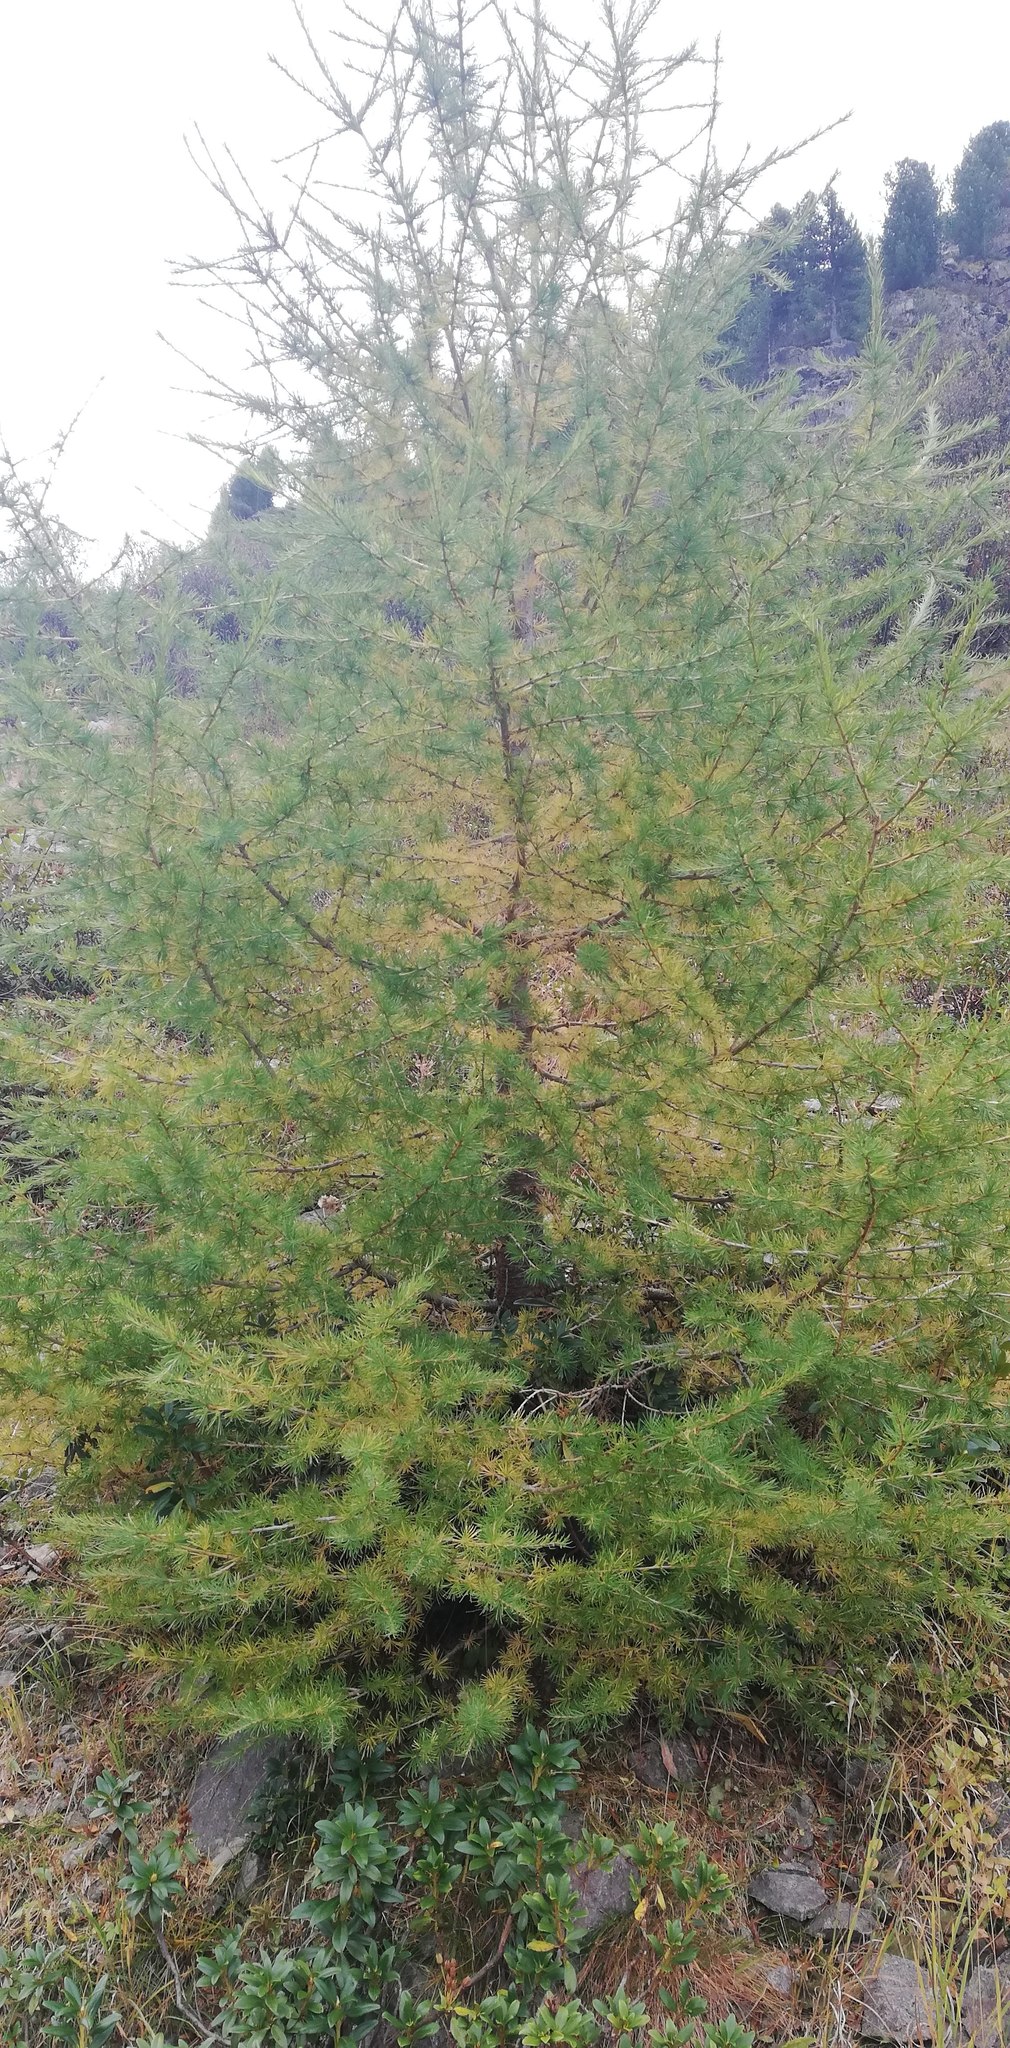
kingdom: Plantae
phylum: Tracheophyta
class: Pinopsida
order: Pinales
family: Pinaceae
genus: Larix
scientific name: Larix decidua
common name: European larch
